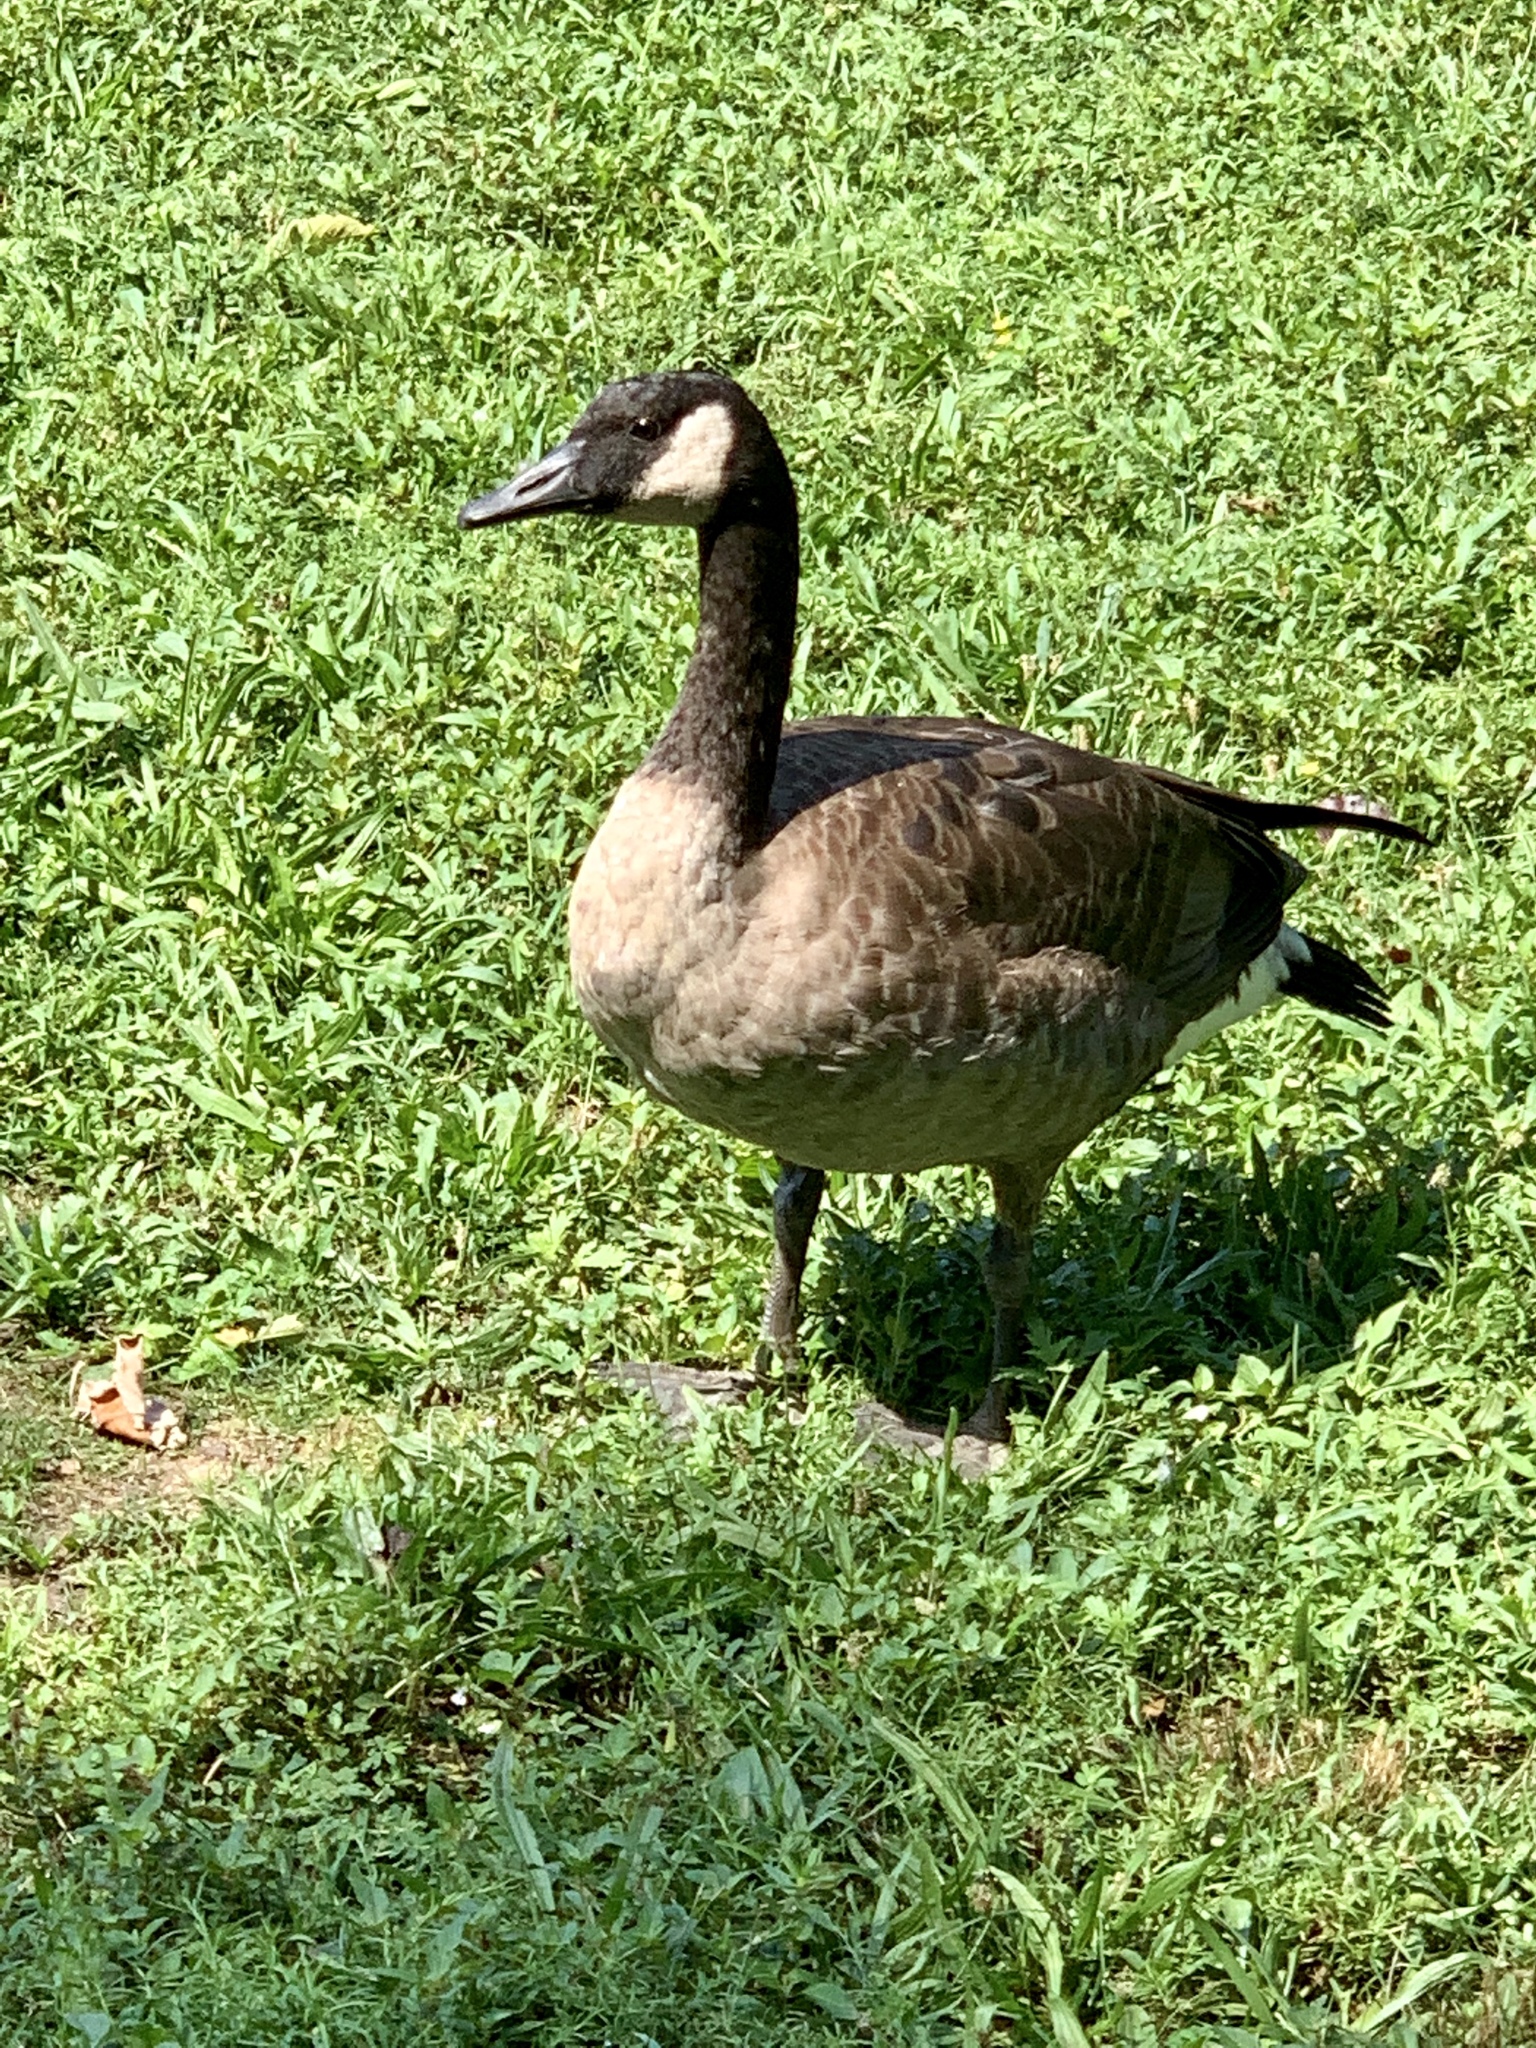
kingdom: Animalia
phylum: Chordata
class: Aves
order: Anseriformes
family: Anatidae
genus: Branta
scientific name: Branta canadensis
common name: Canada goose
